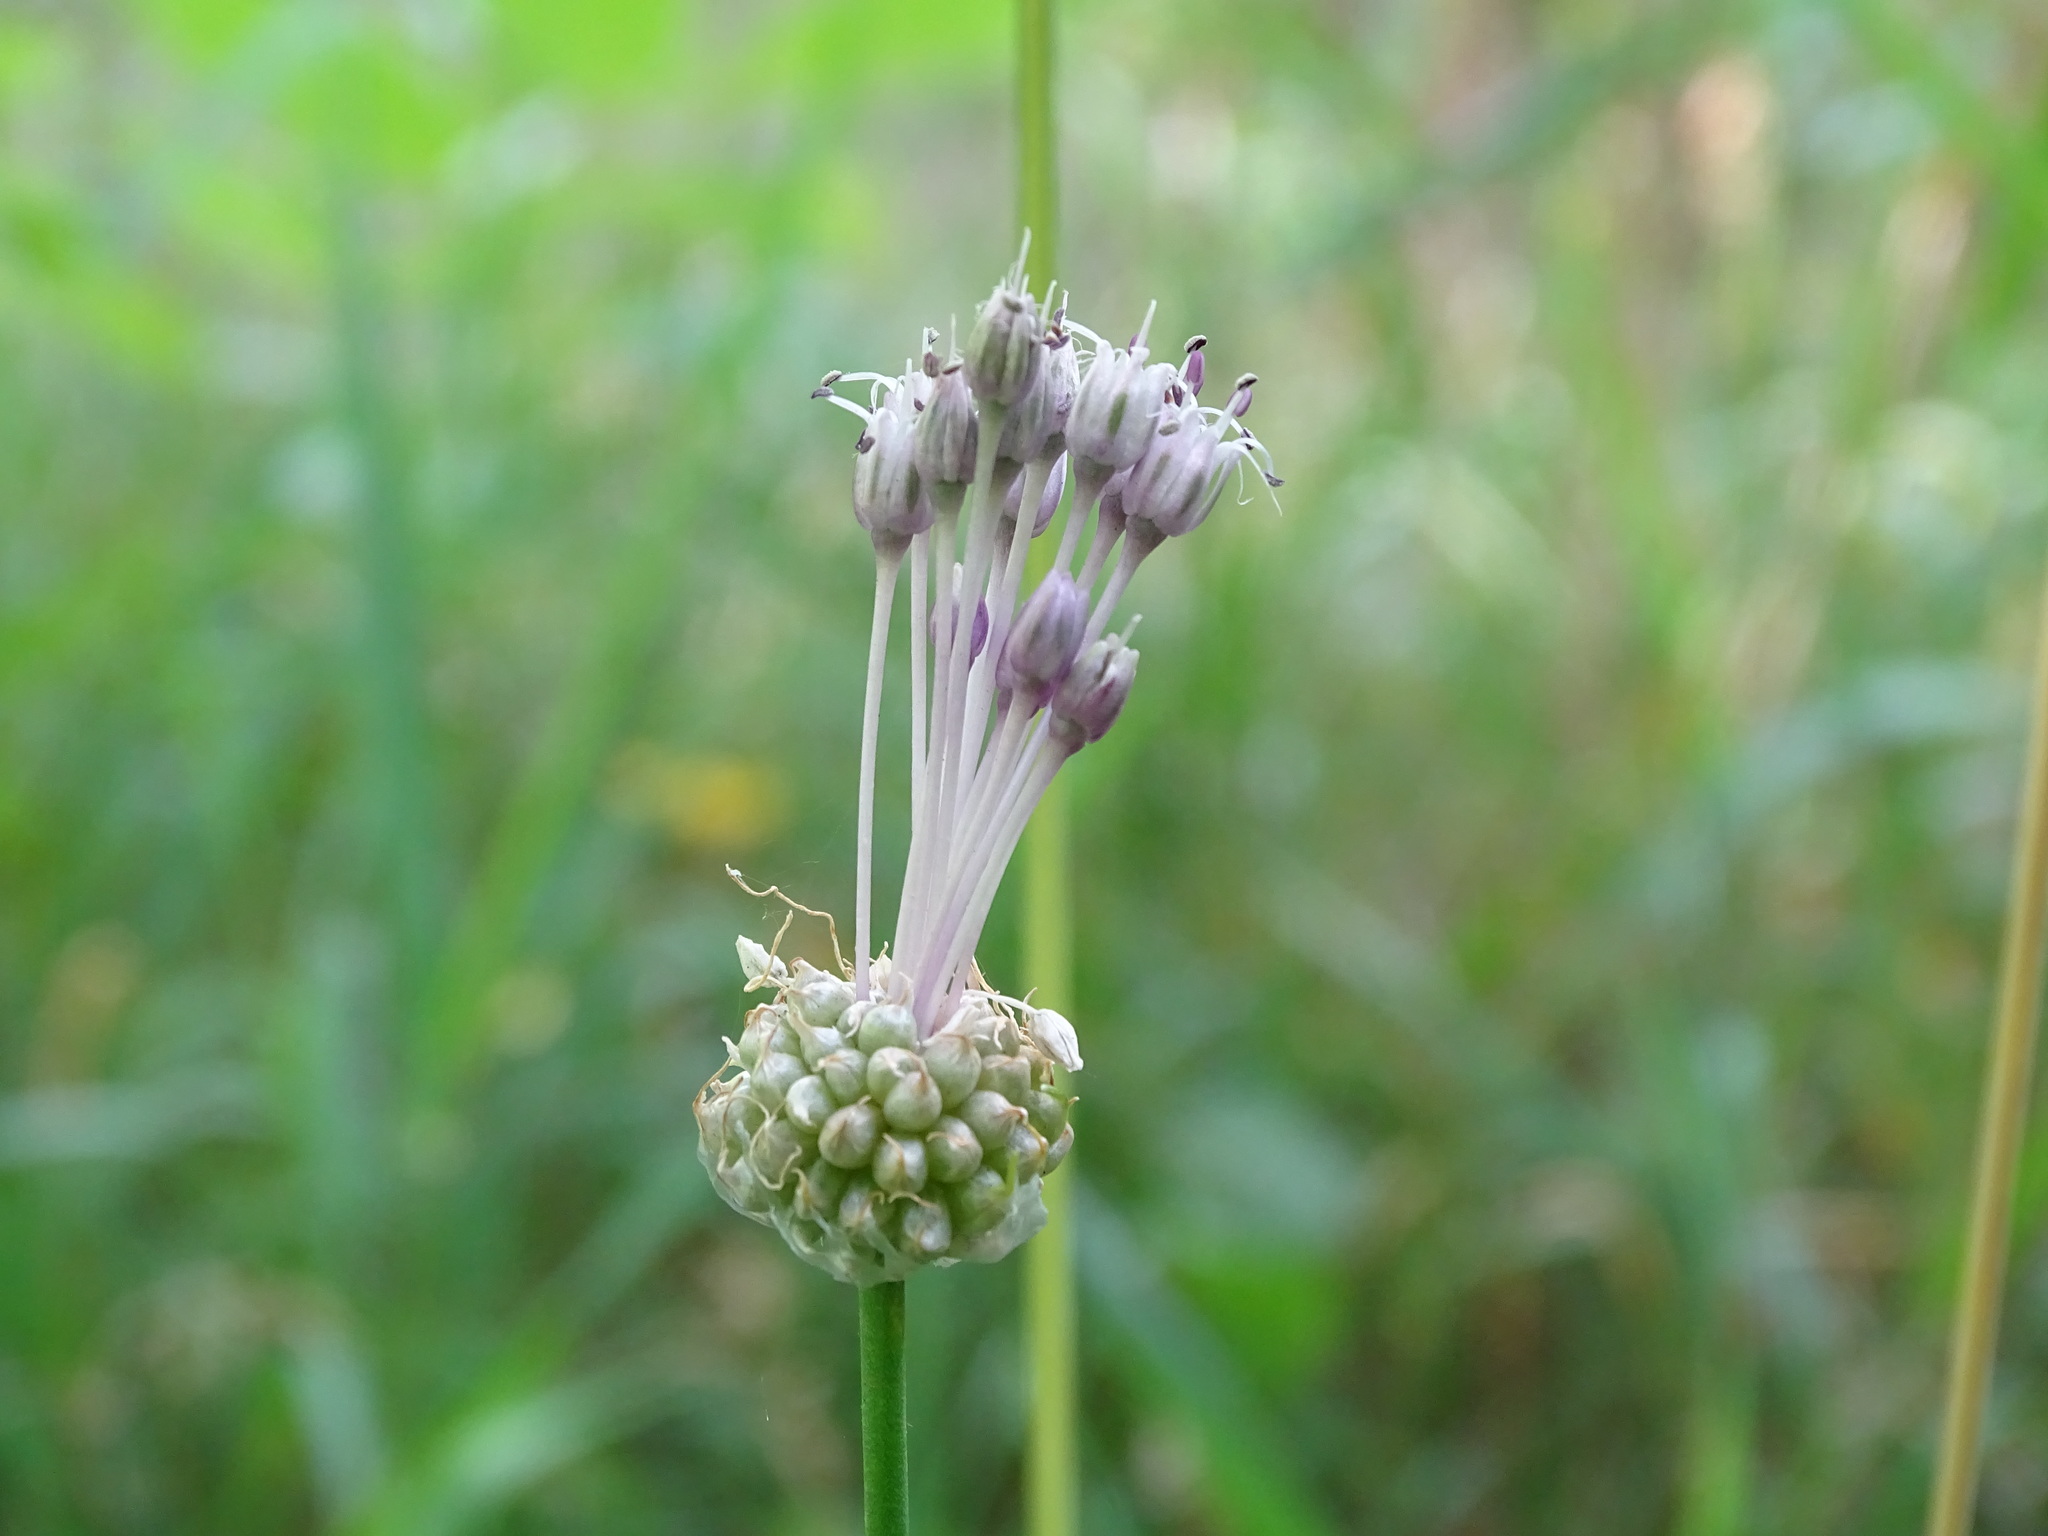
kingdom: Plantae
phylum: Tracheophyta
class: Liliopsida
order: Asparagales
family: Amaryllidaceae
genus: Allium
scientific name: Allium vineale
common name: Crow garlic
